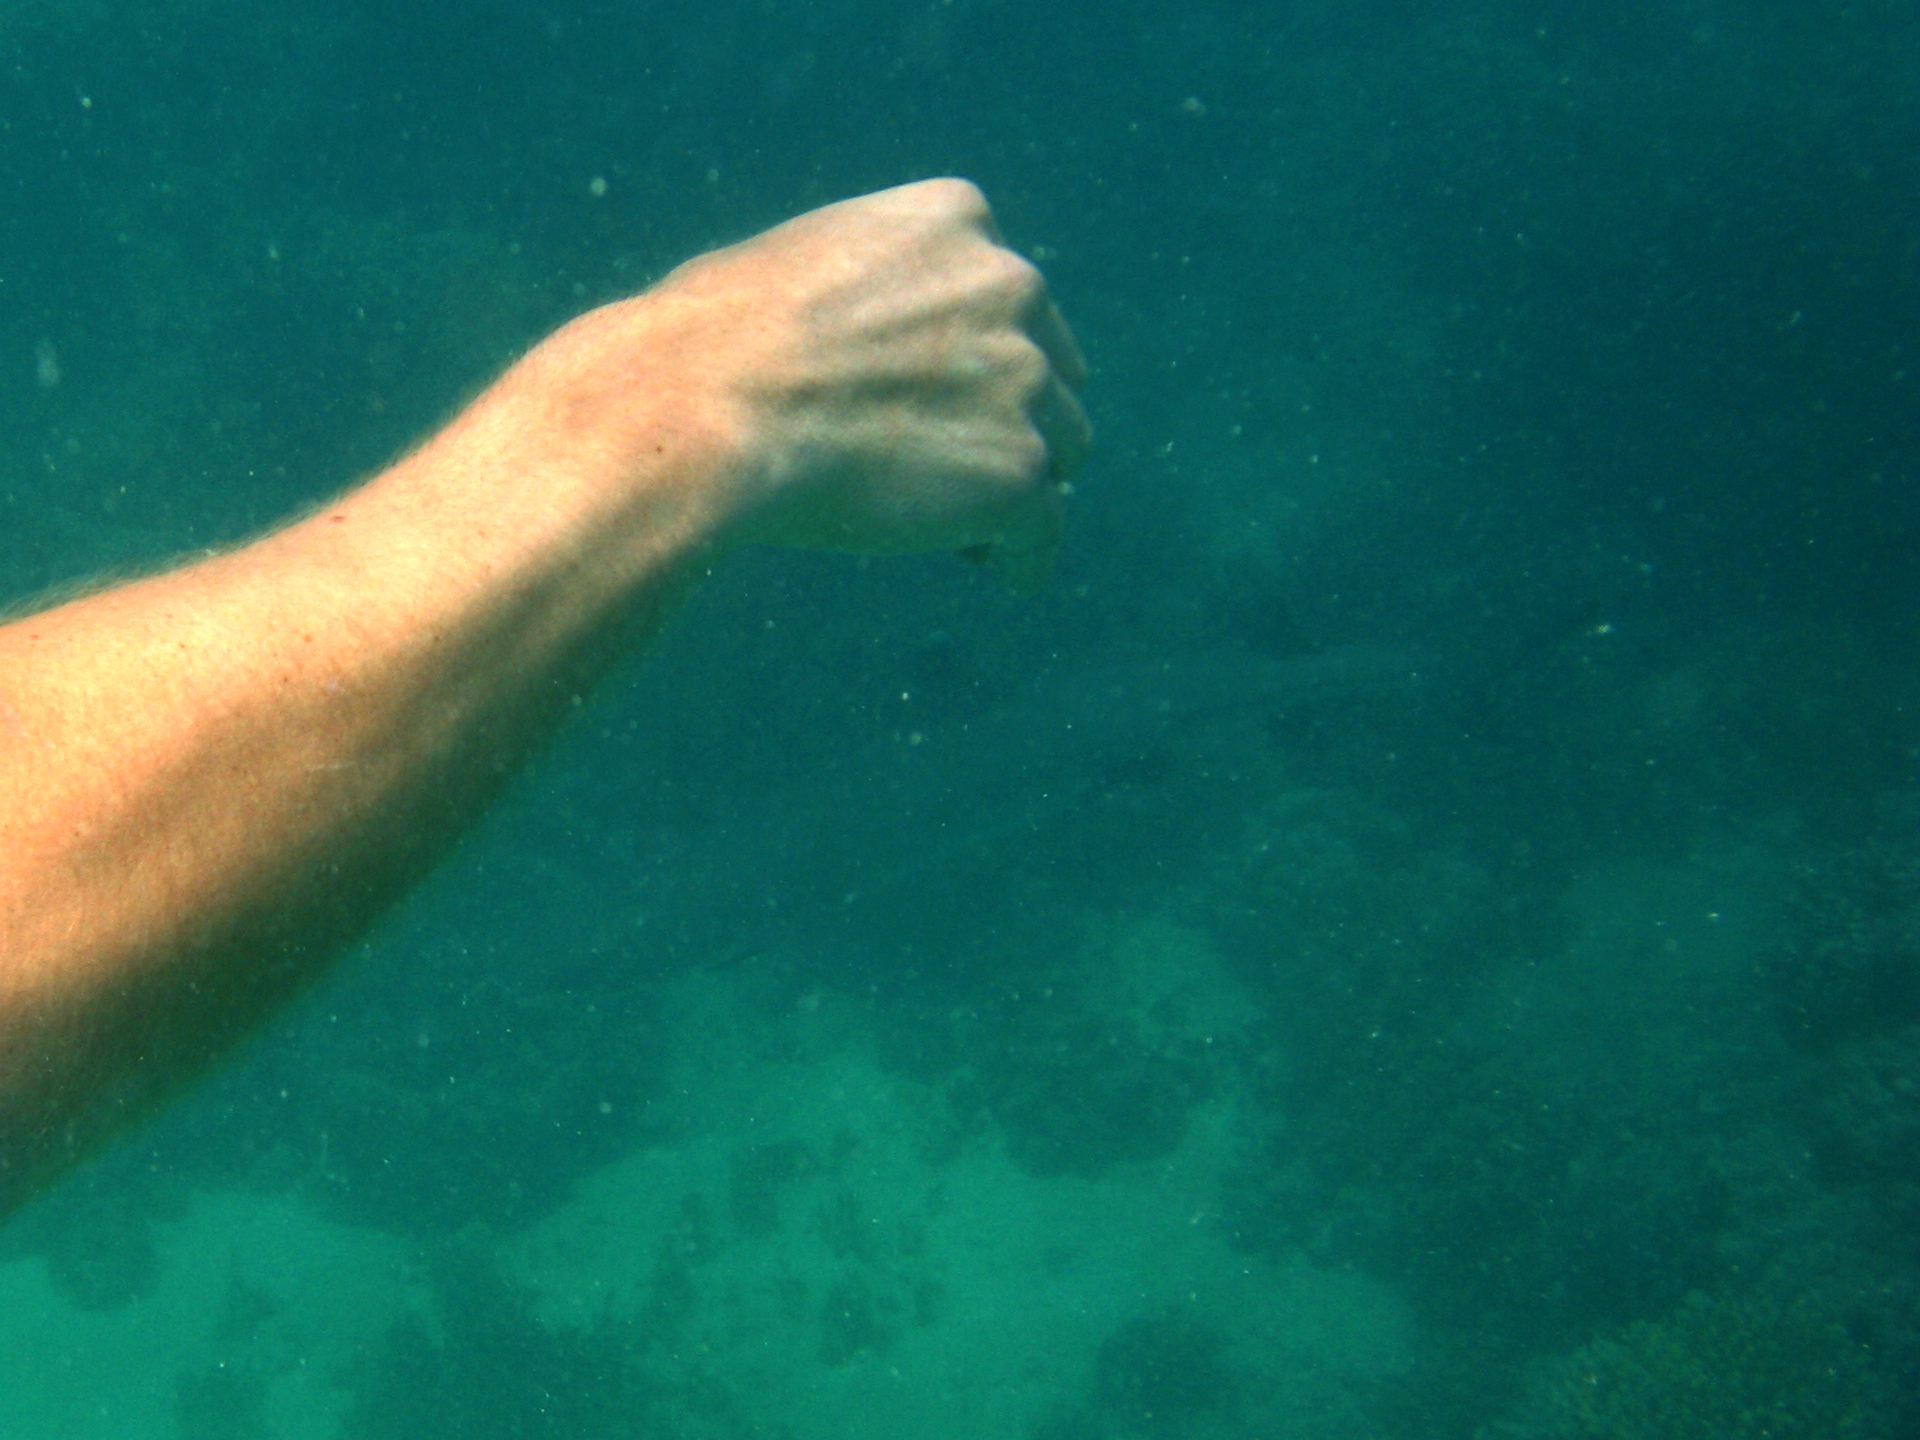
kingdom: Animalia
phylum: Chordata
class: Elasmobranchii
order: Carcharhiniformes
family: Carcharhinidae
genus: Triaenodon
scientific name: Triaenodon obesus
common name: Whitetip reef shark
